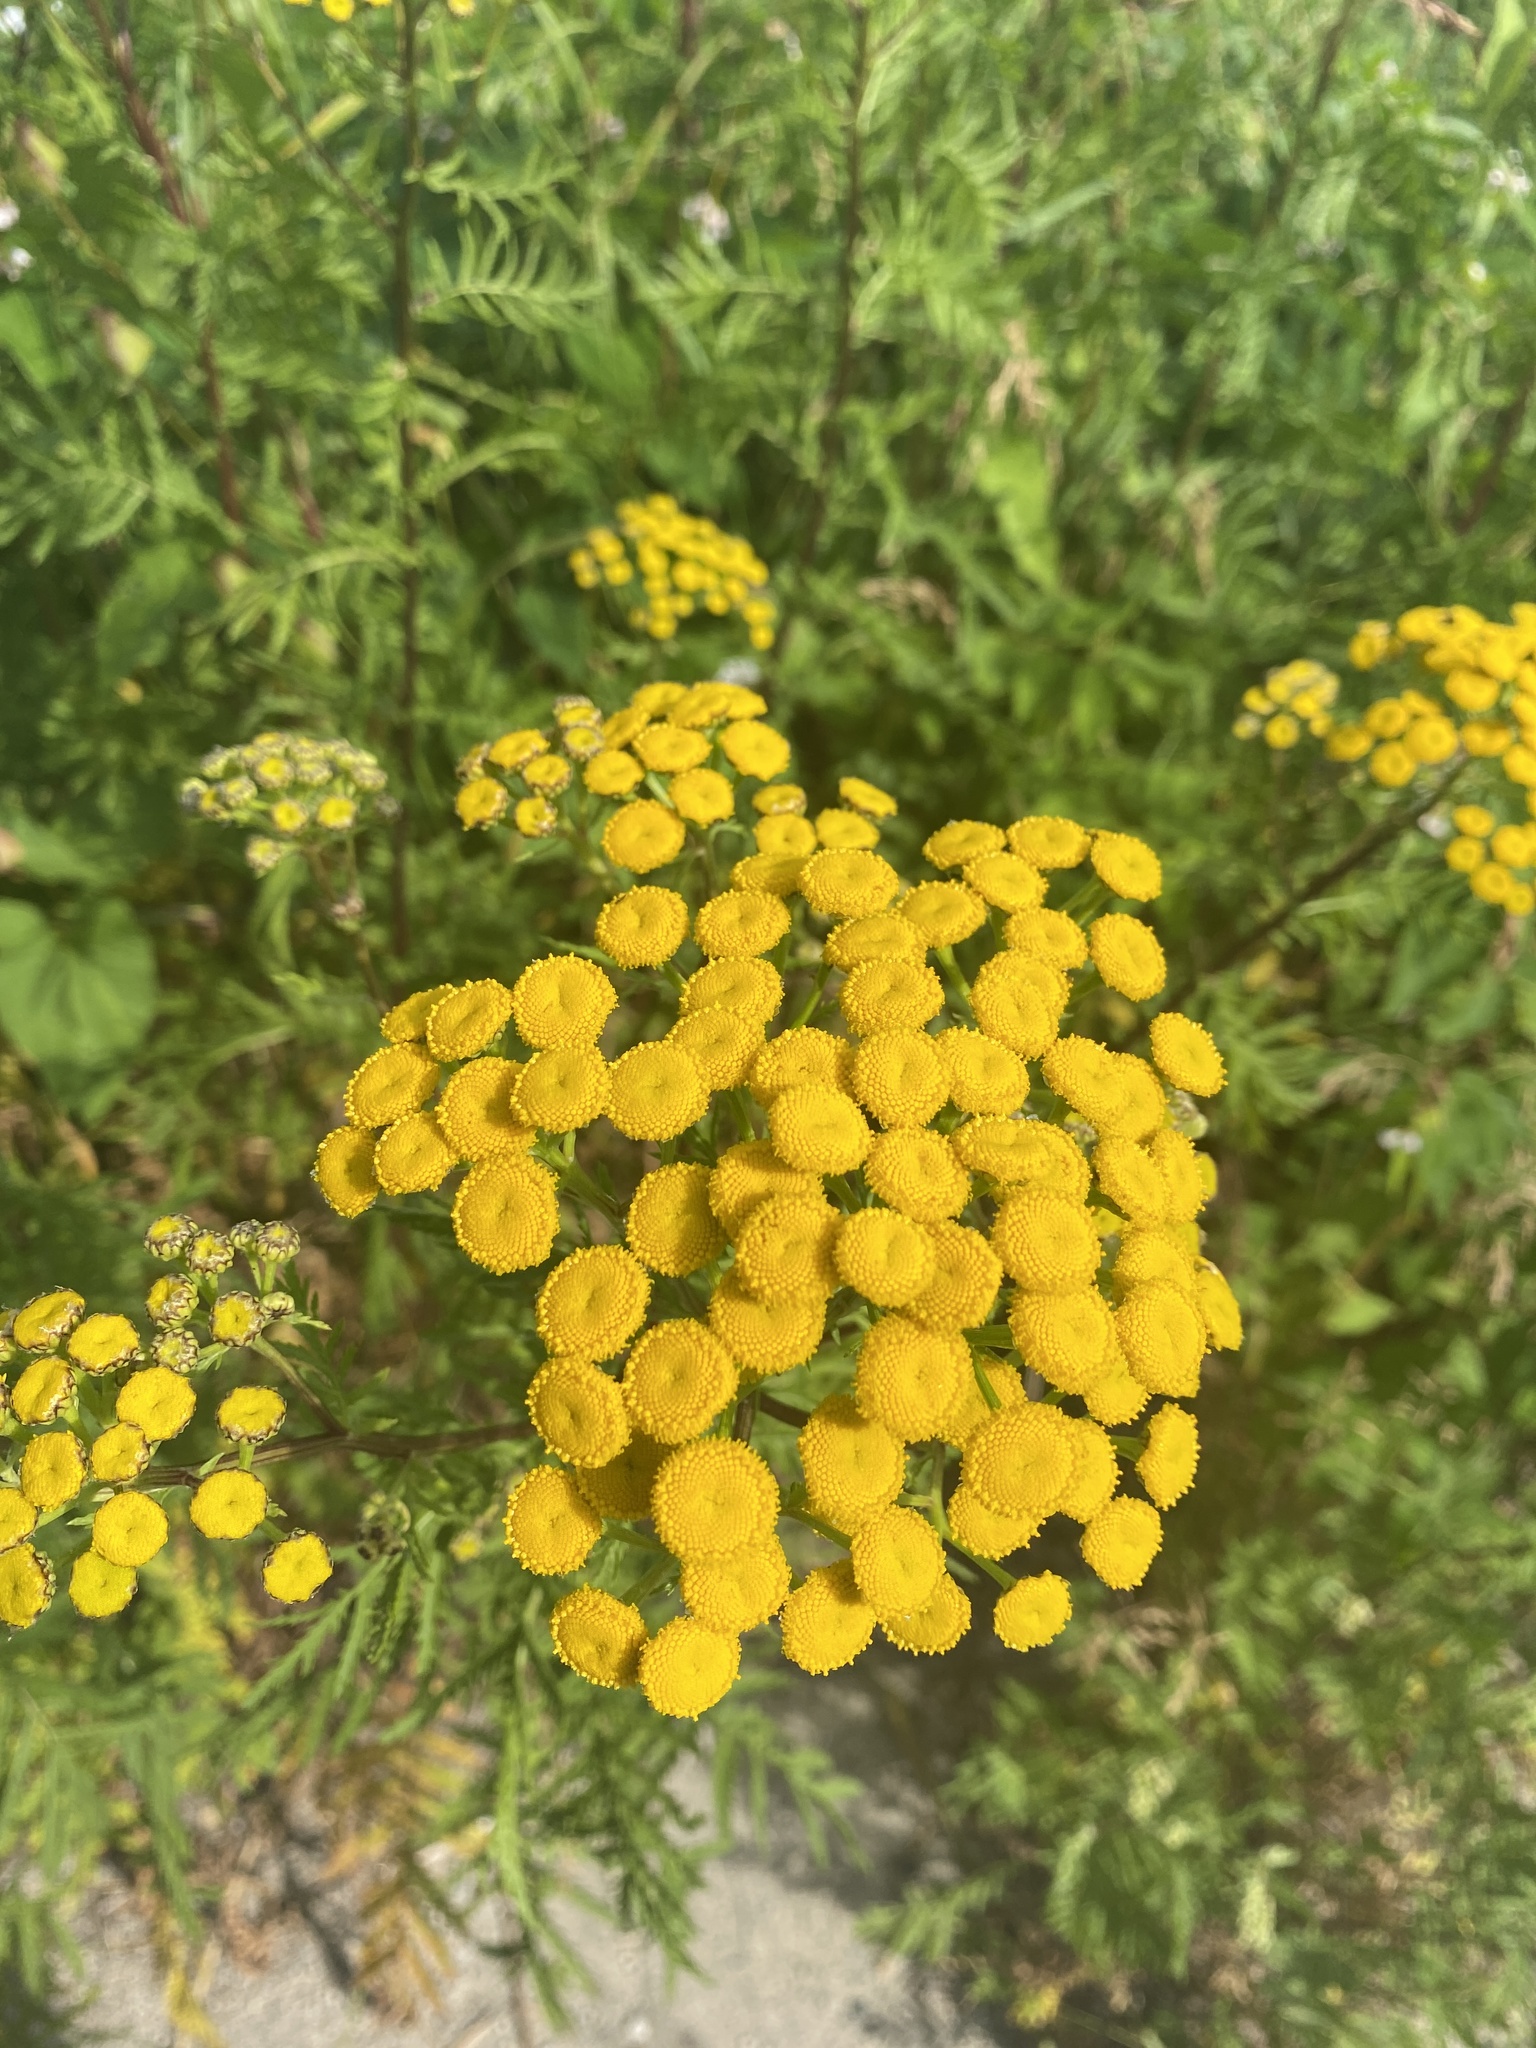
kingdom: Plantae
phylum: Tracheophyta
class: Magnoliopsida
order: Asterales
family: Asteraceae
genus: Tanacetum
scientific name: Tanacetum vulgare
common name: Common tansy
